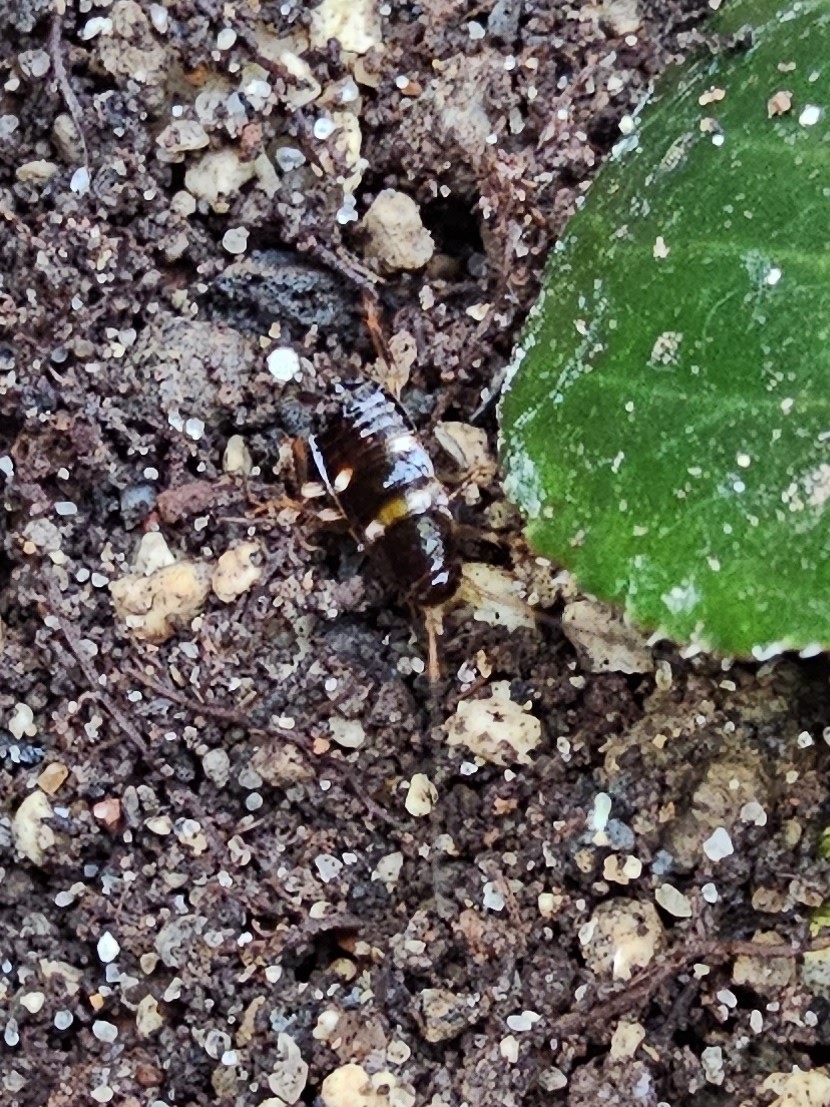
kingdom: Animalia
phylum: Arthropoda
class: Insecta
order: Blattodea
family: Blattidae
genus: Periplaneta
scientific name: Periplaneta australasiae
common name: Australian cockroach
